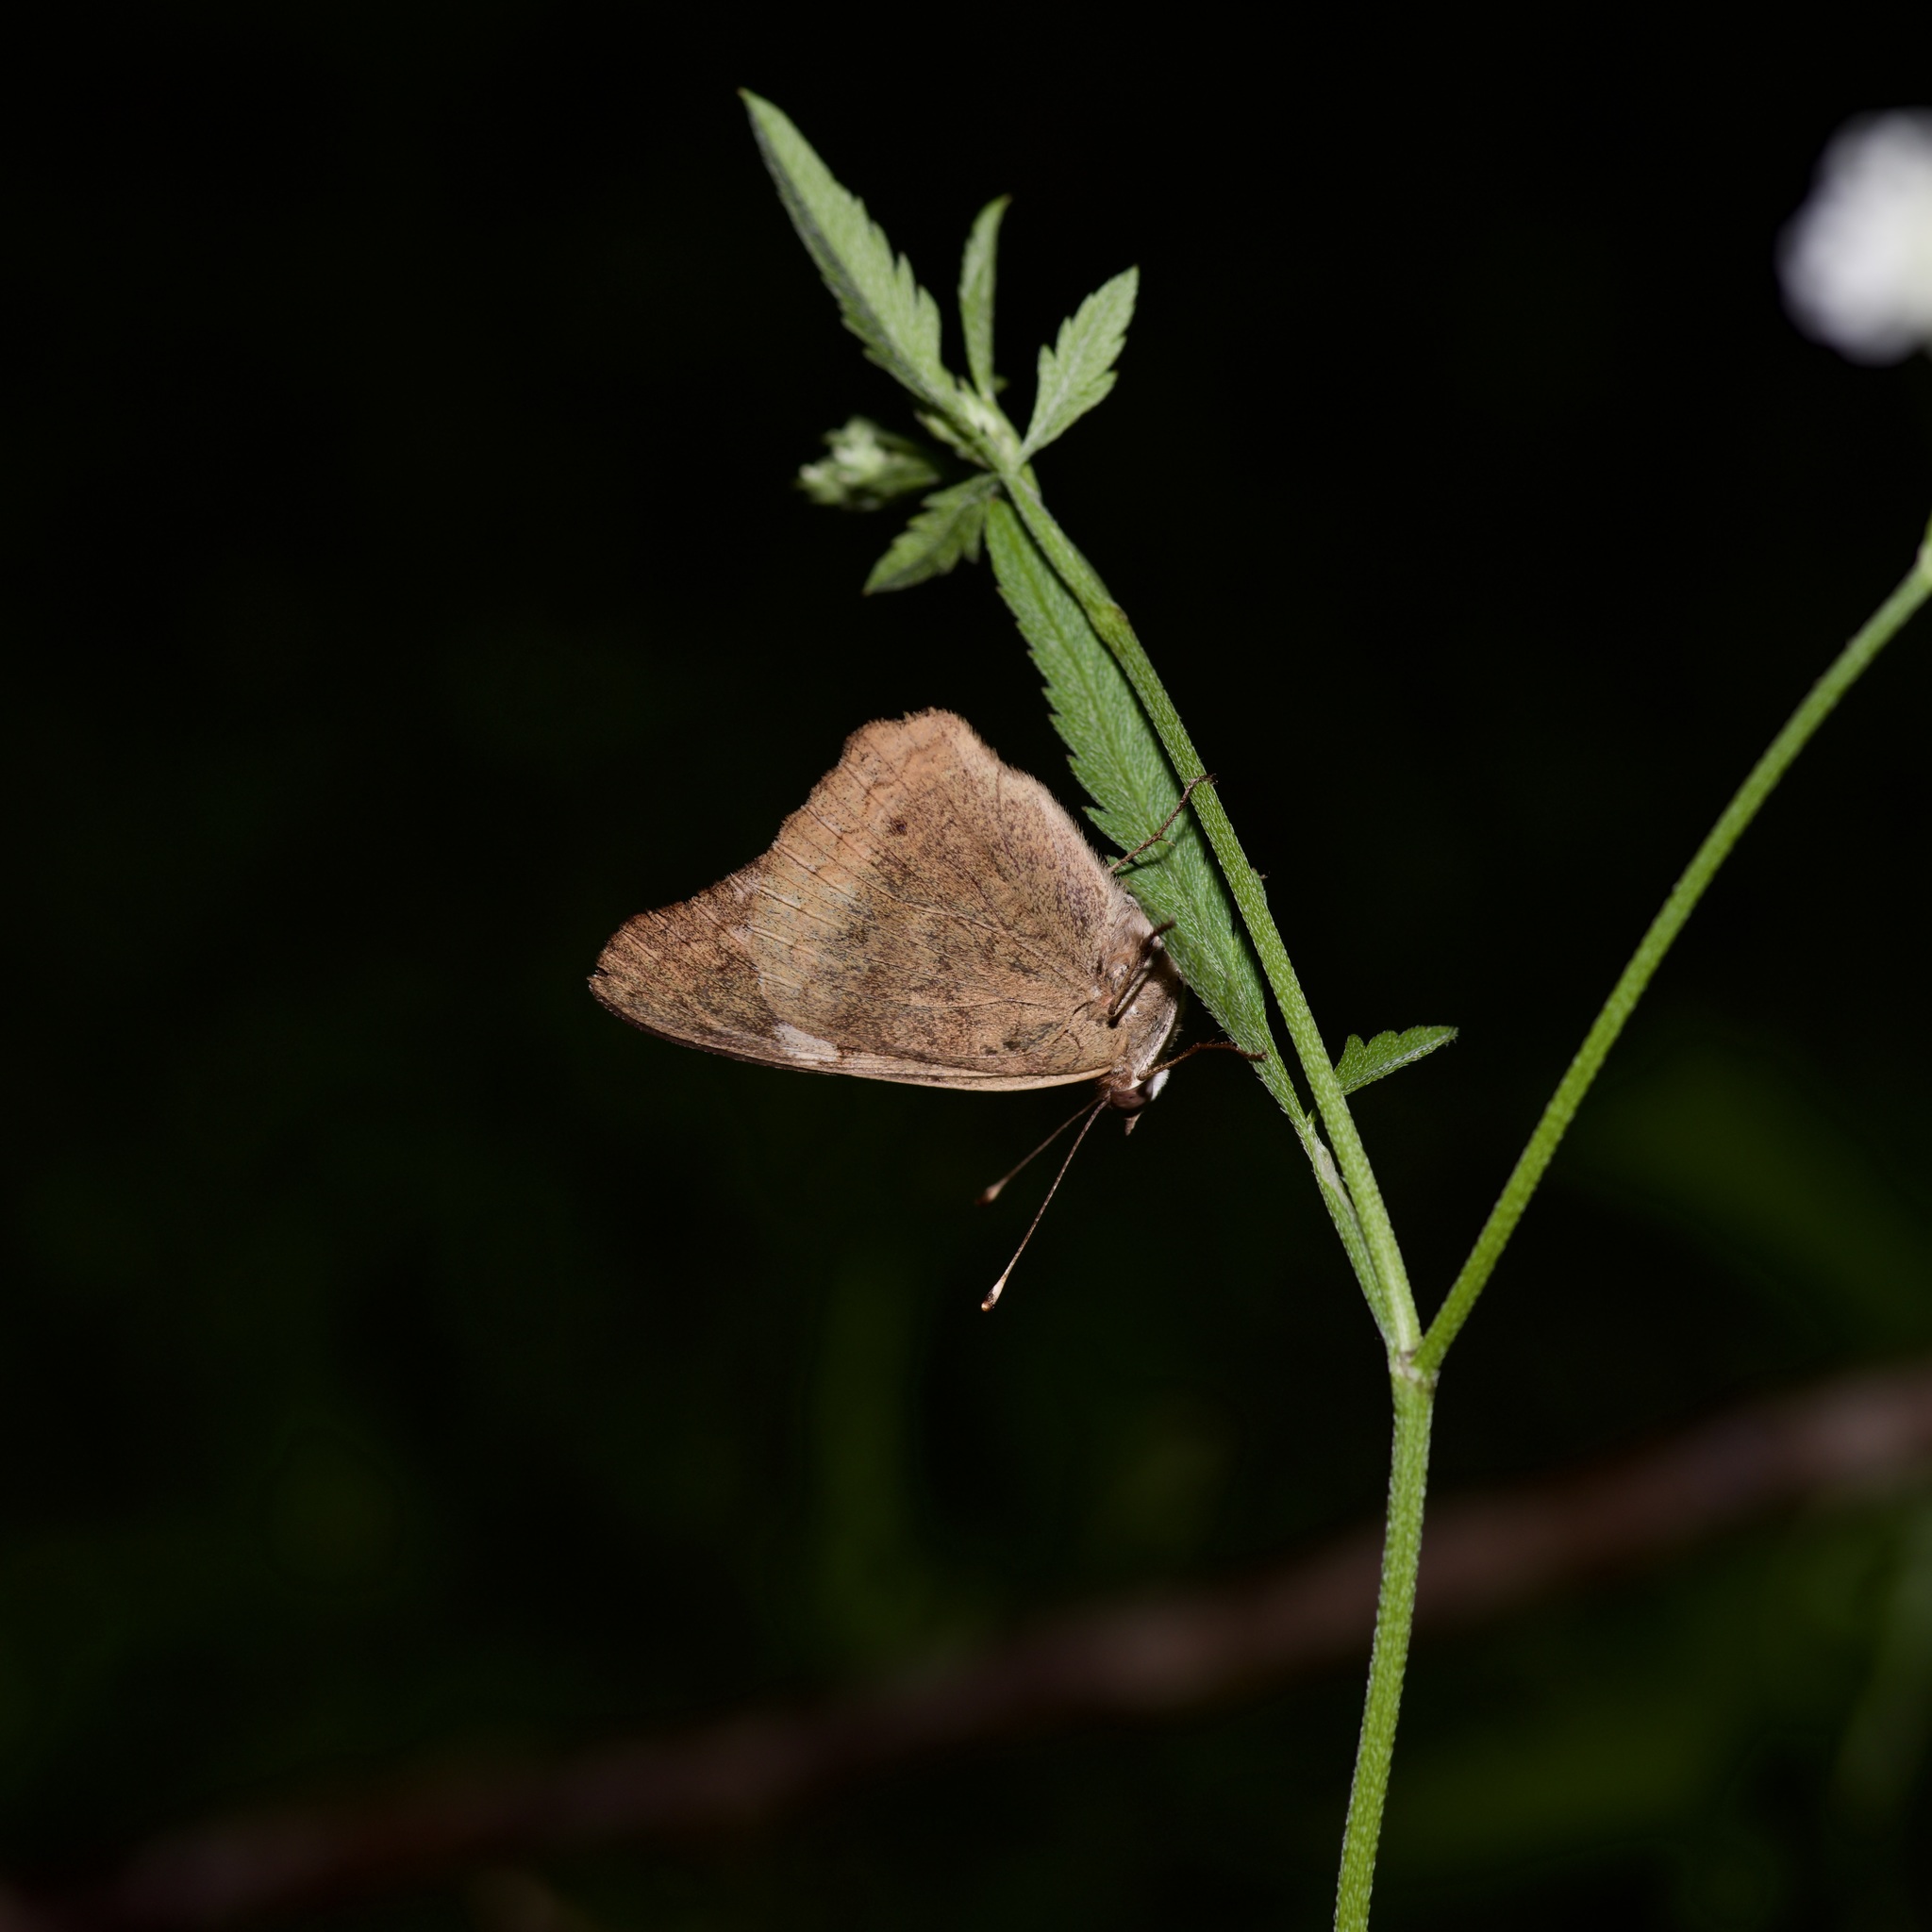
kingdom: Animalia
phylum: Arthropoda
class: Insecta
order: Lepidoptera
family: Nymphalidae
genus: Junonia
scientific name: Junonia coenia
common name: Common buckeye
